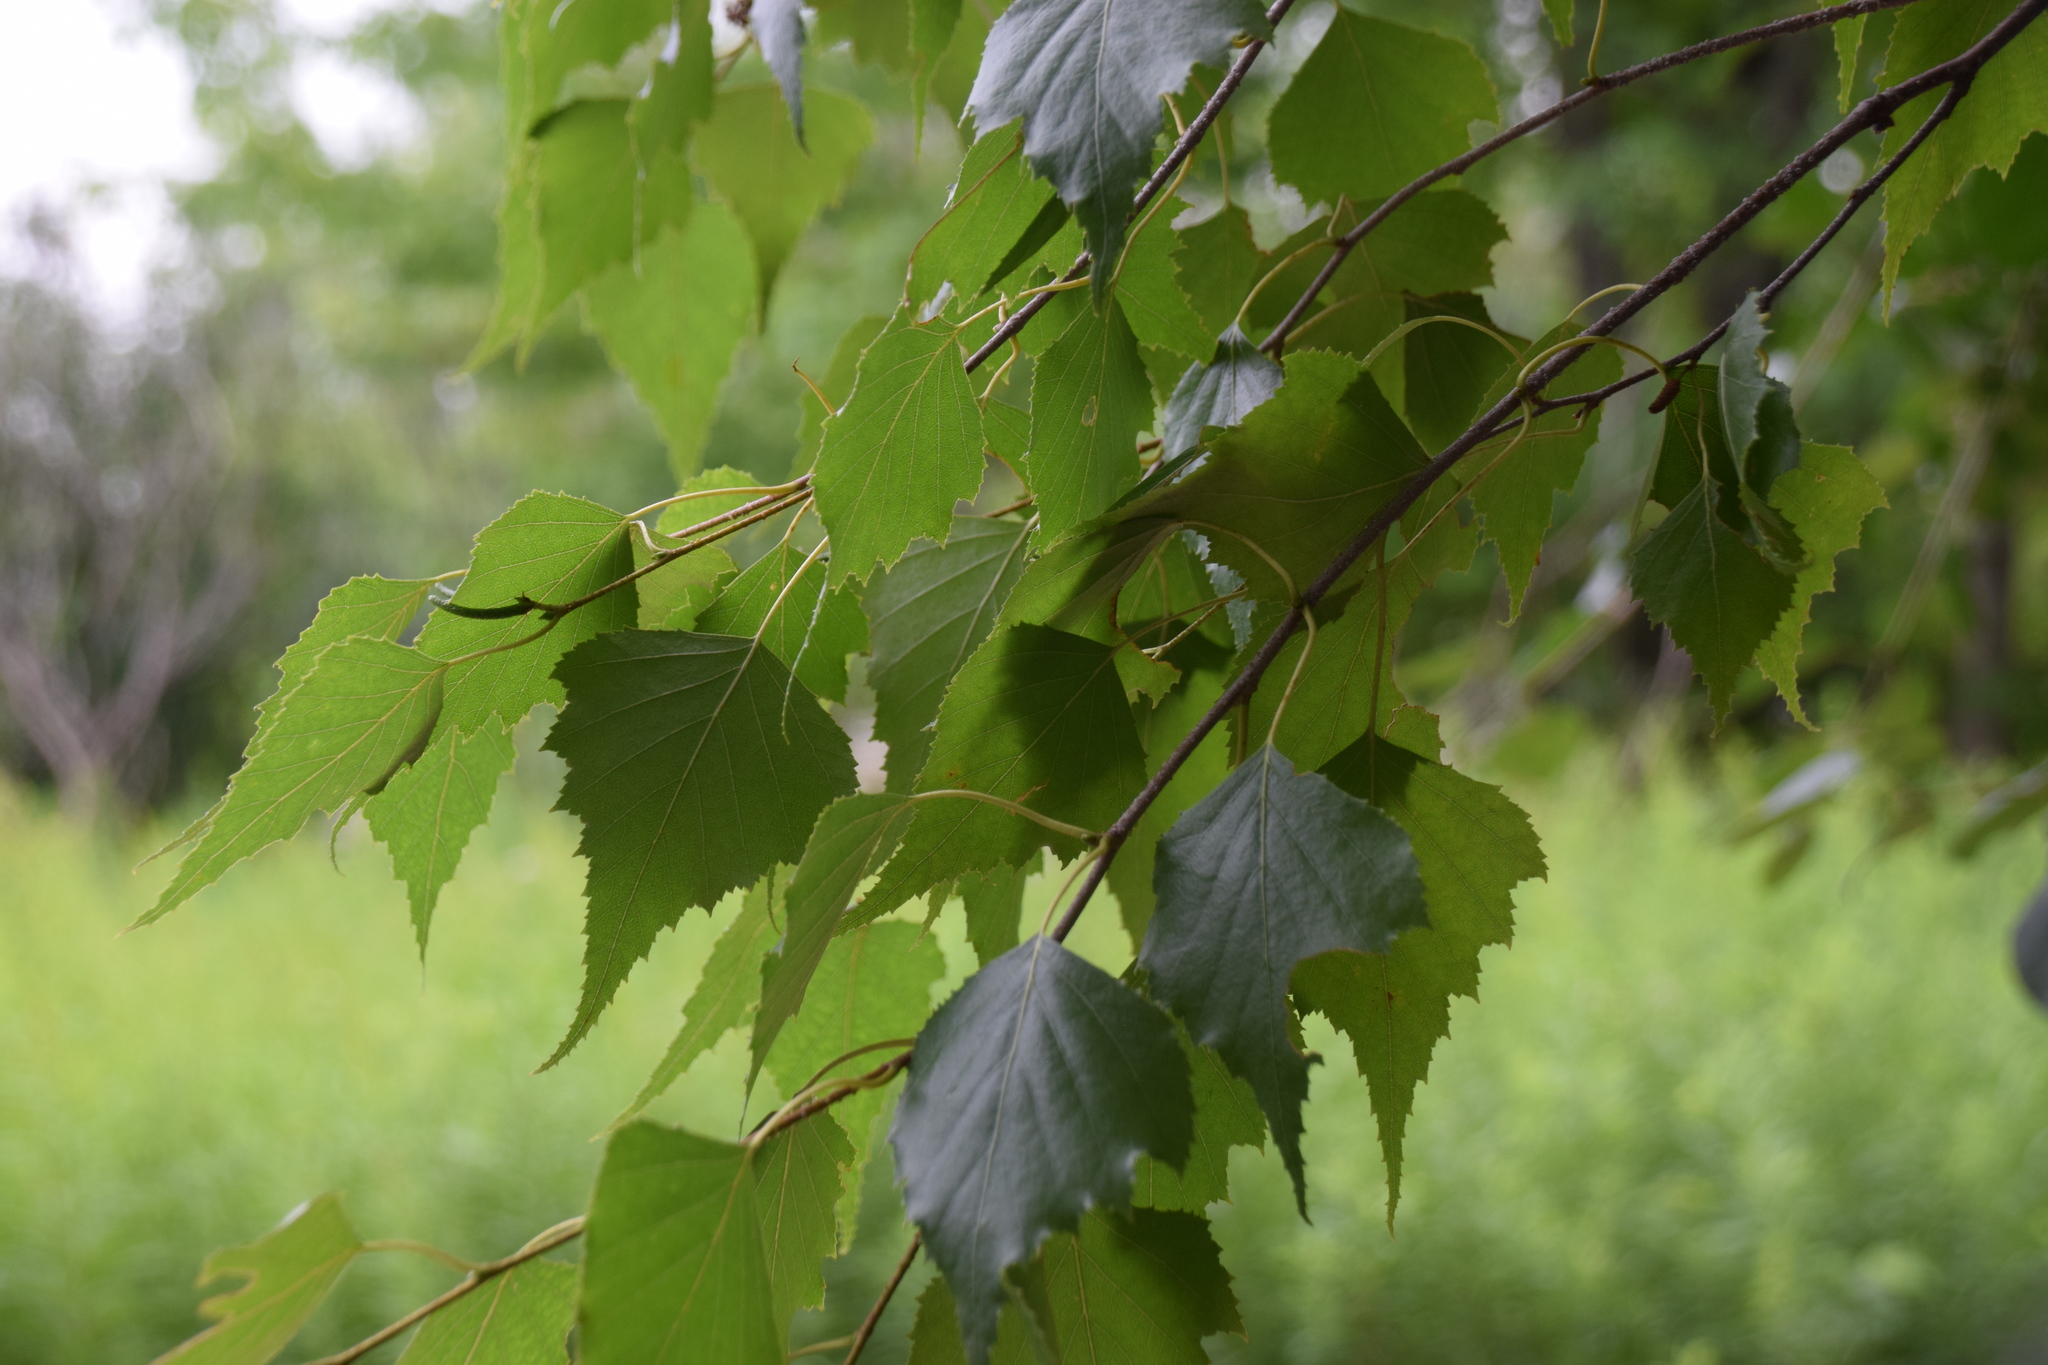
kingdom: Plantae
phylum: Tracheophyta
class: Magnoliopsida
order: Fagales
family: Betulaceae
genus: Betula
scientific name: Betula populifolia
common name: Fire birch
